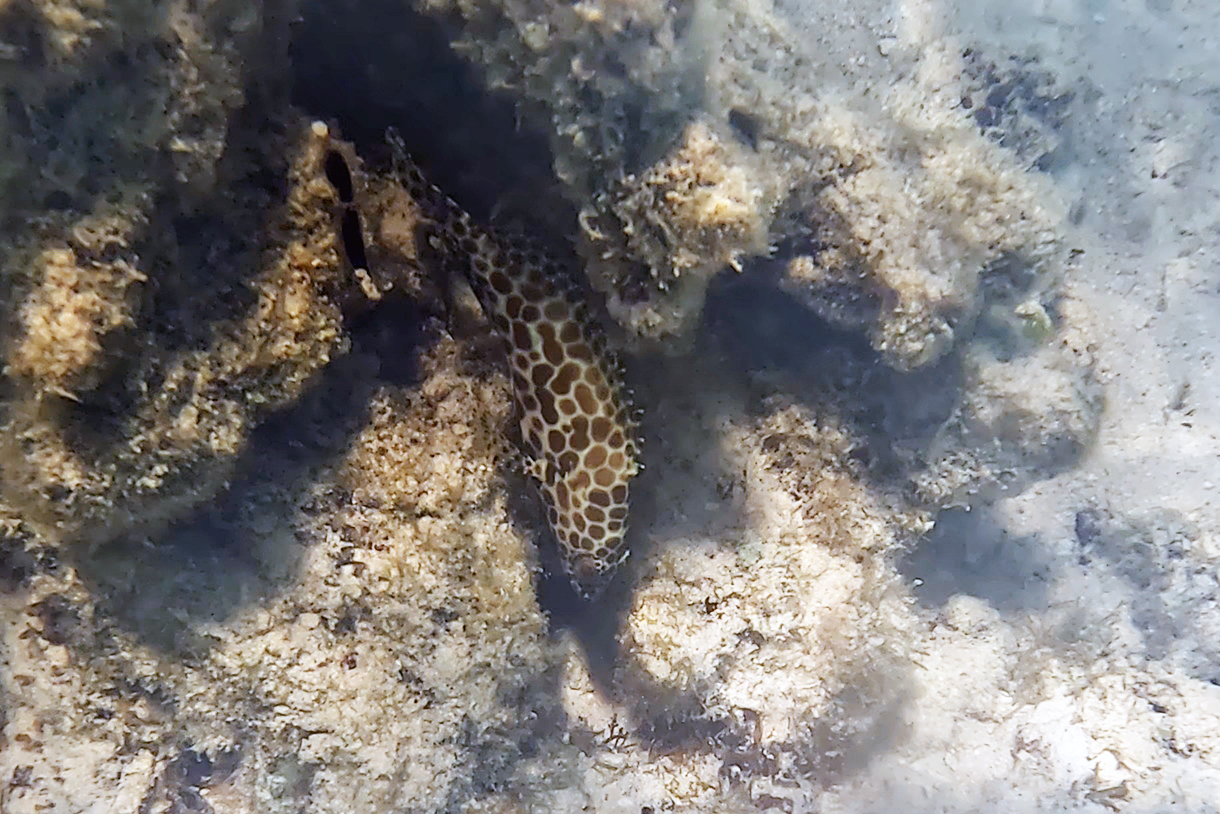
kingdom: Animalia
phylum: Chordata
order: Perciformes
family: Serranidae
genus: Epinephelus
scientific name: Epinephelus merra
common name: Honeycomb grouper
